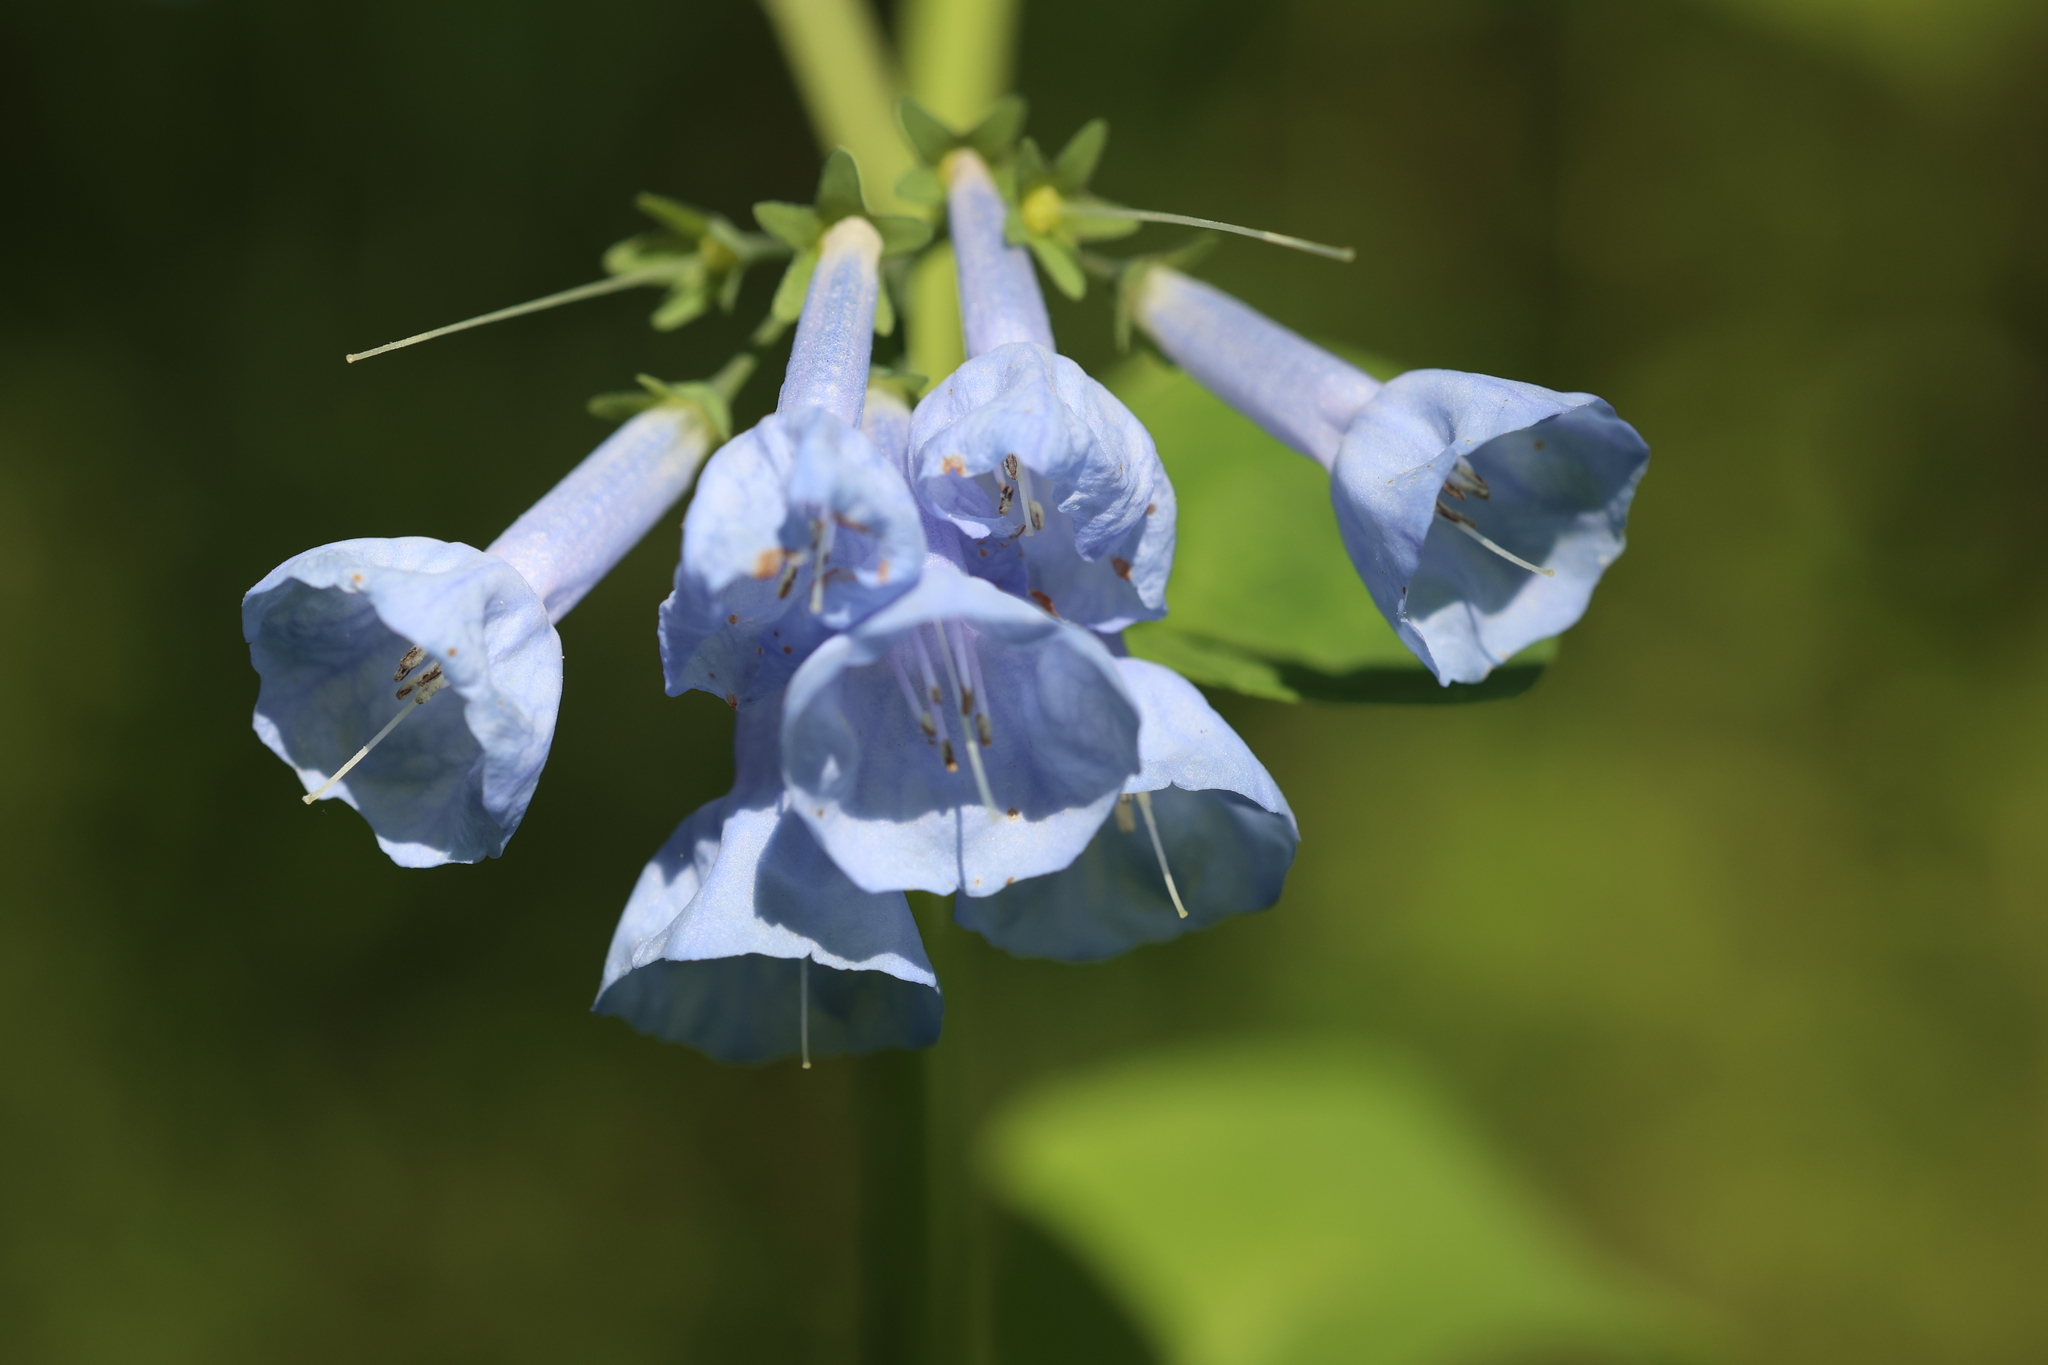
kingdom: Plantae
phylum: Tracheophyta
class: Magnoliopsida
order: Boraginales
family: Boraginaceae
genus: Mertensia
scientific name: Mertensia virginica
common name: Virginia bluebells
